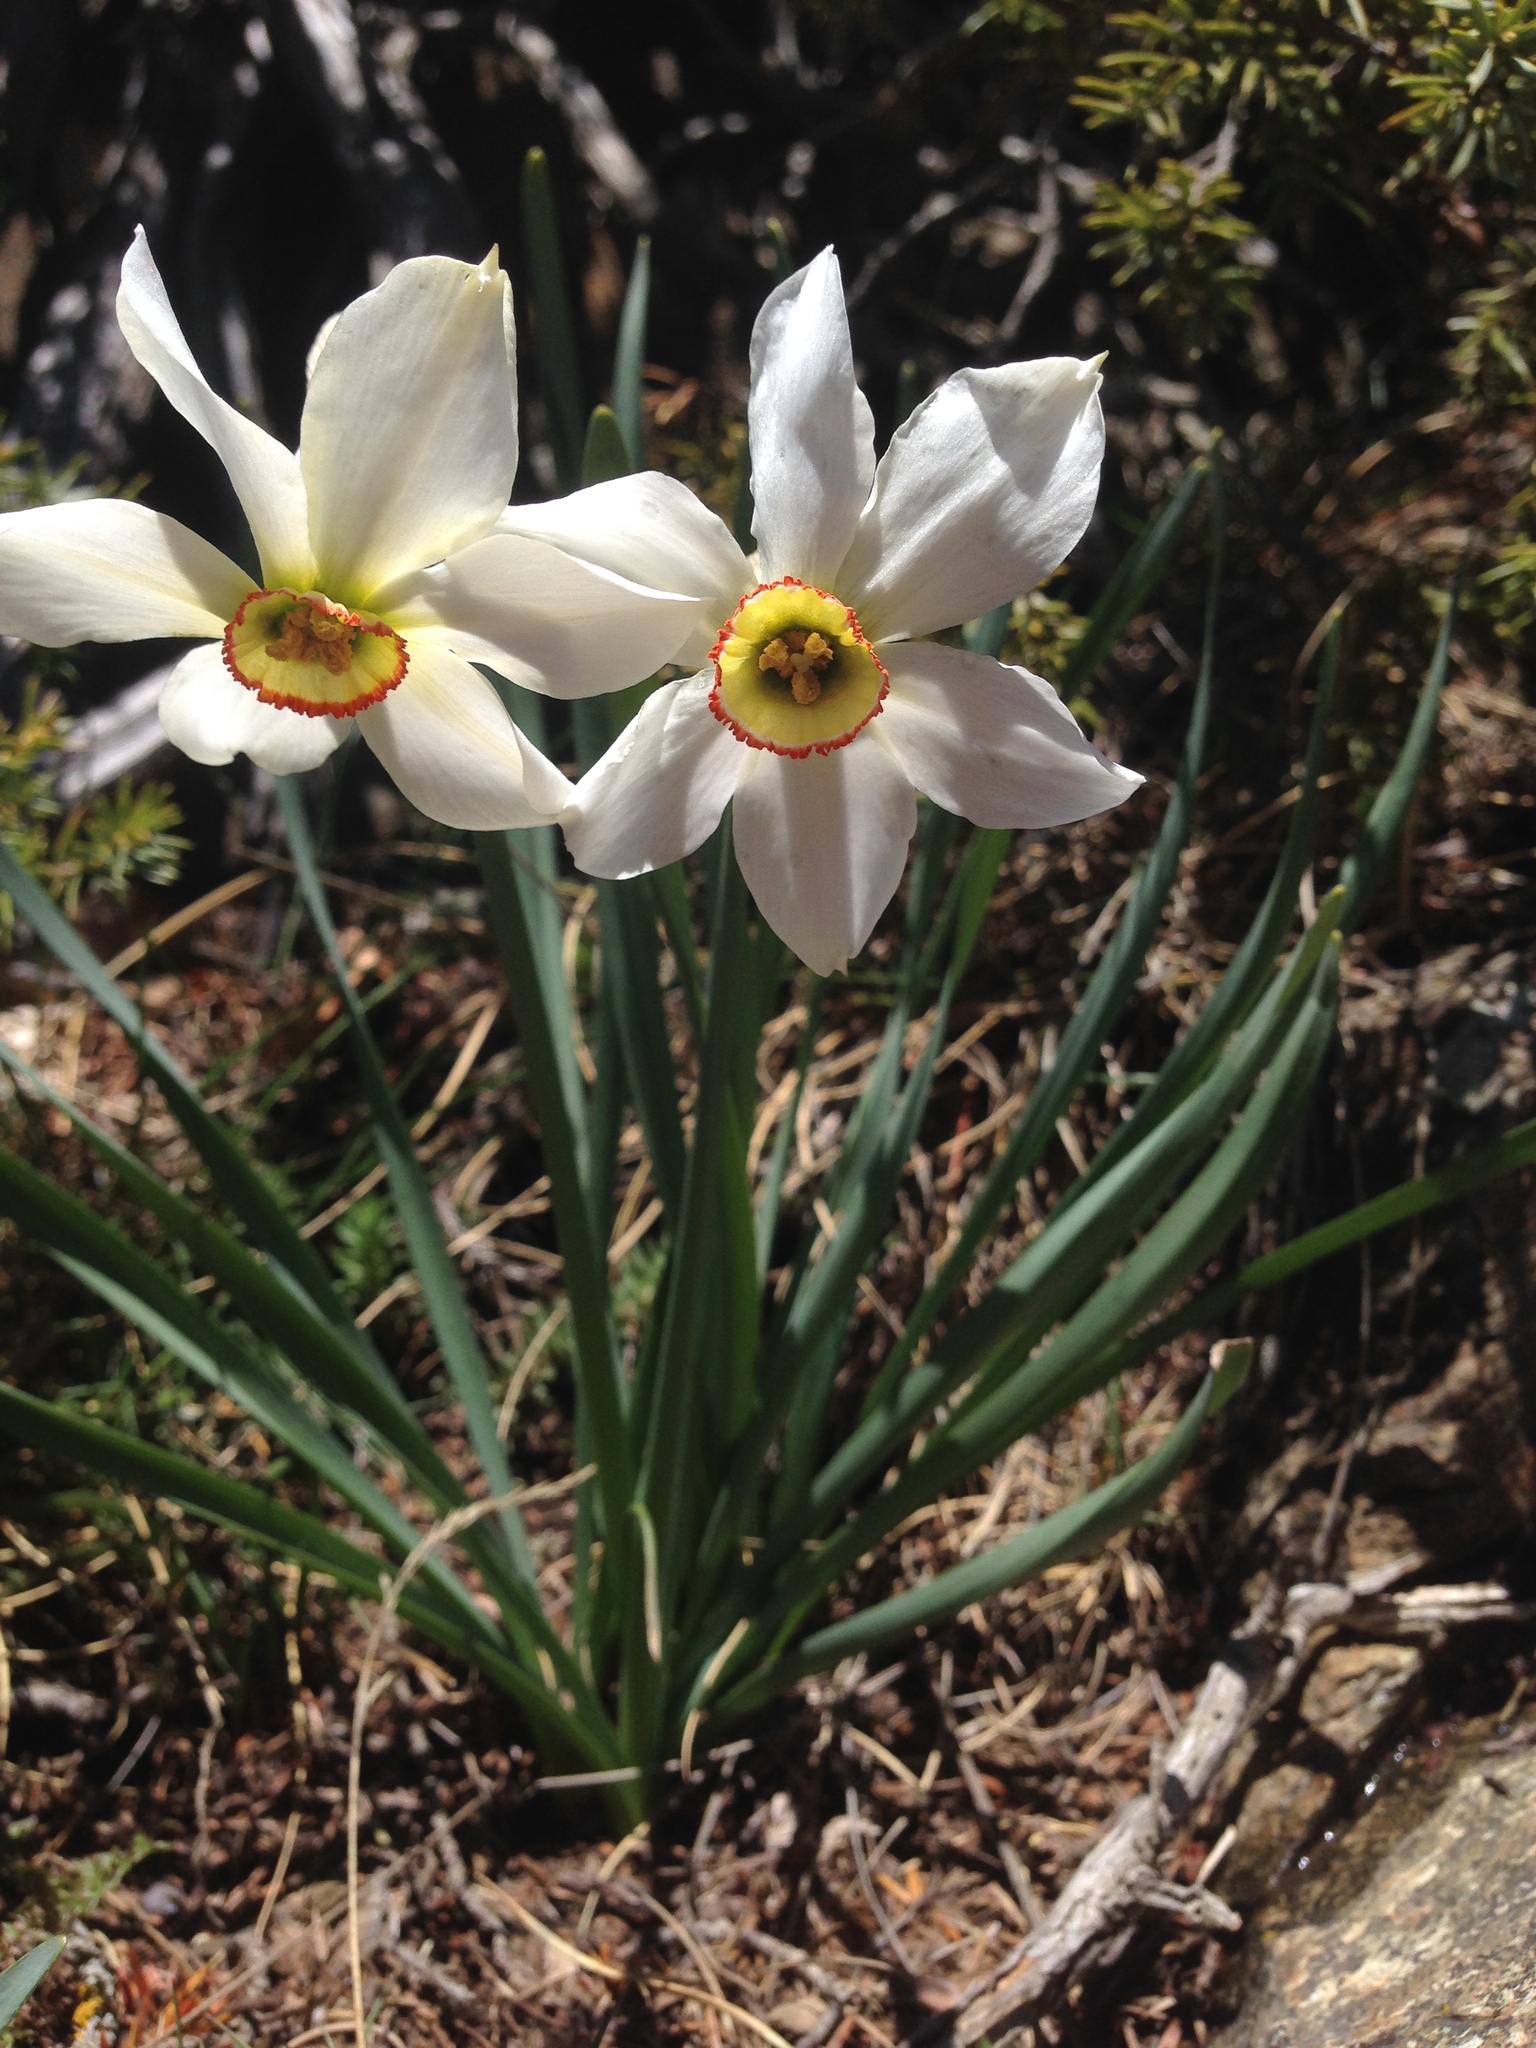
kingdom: Plantae
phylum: Tracheophyta
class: Liliopsida
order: Asparagales
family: Amaryllidaceae
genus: Narcissus
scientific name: Narcissus poeticus
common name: Pheasant's-eye daffodil
